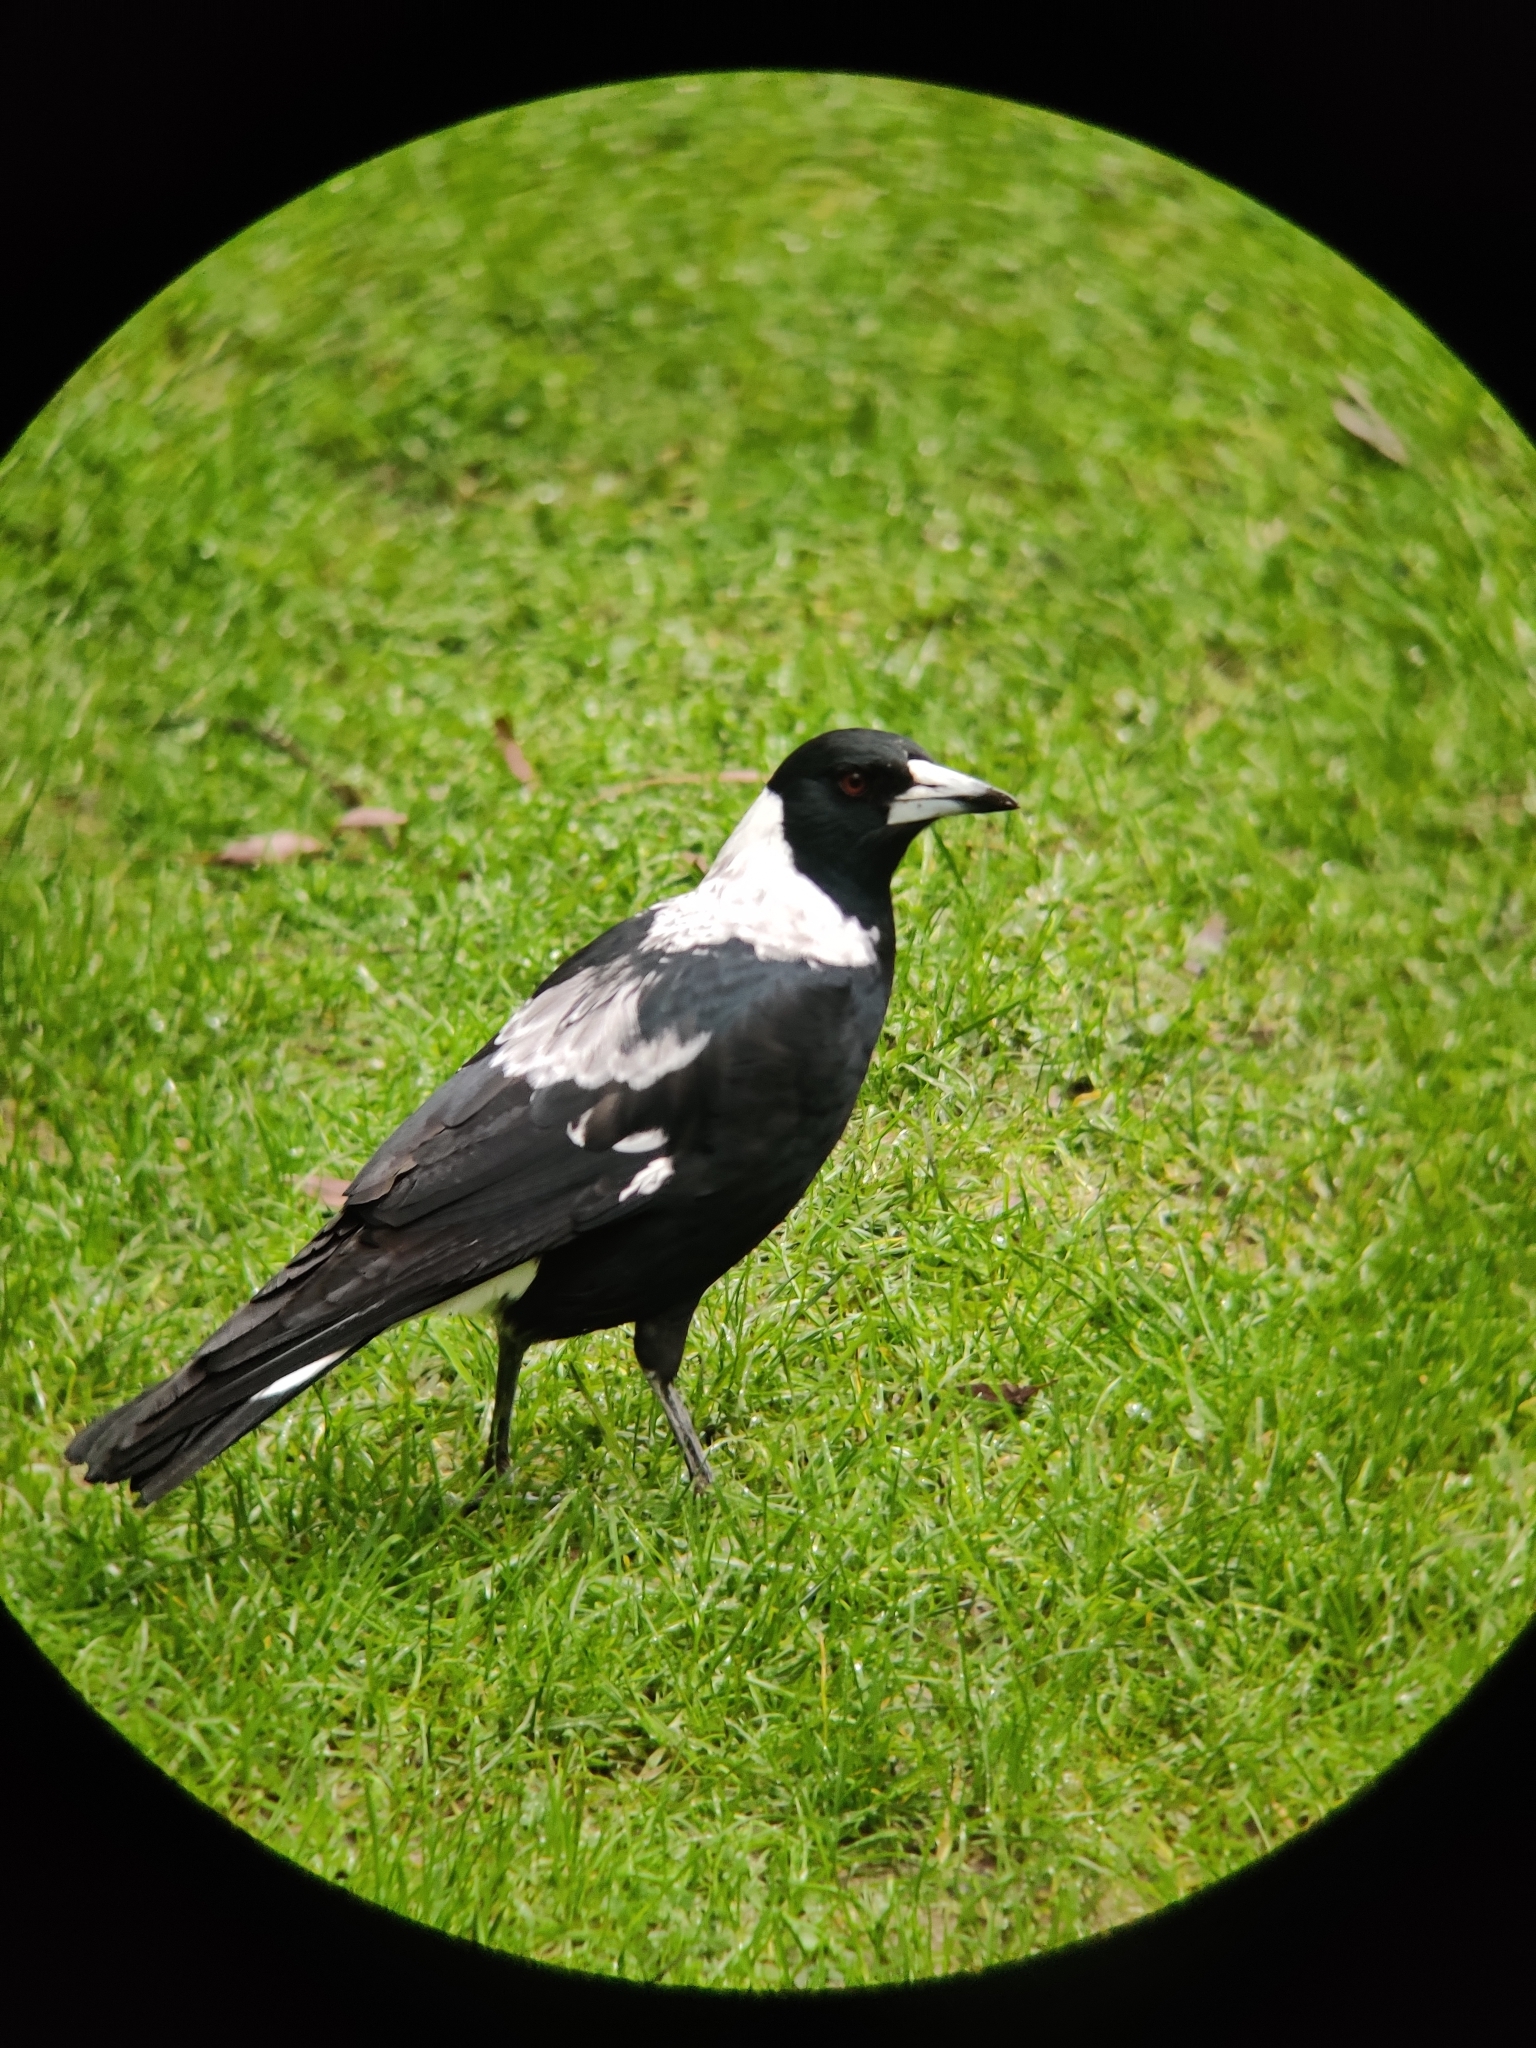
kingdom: Animalia
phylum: Chordata
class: Aves
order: Passeriformes
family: Cracticidae
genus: Gymnorhina
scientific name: Gymnorhina tibicen
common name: Australian magpie
